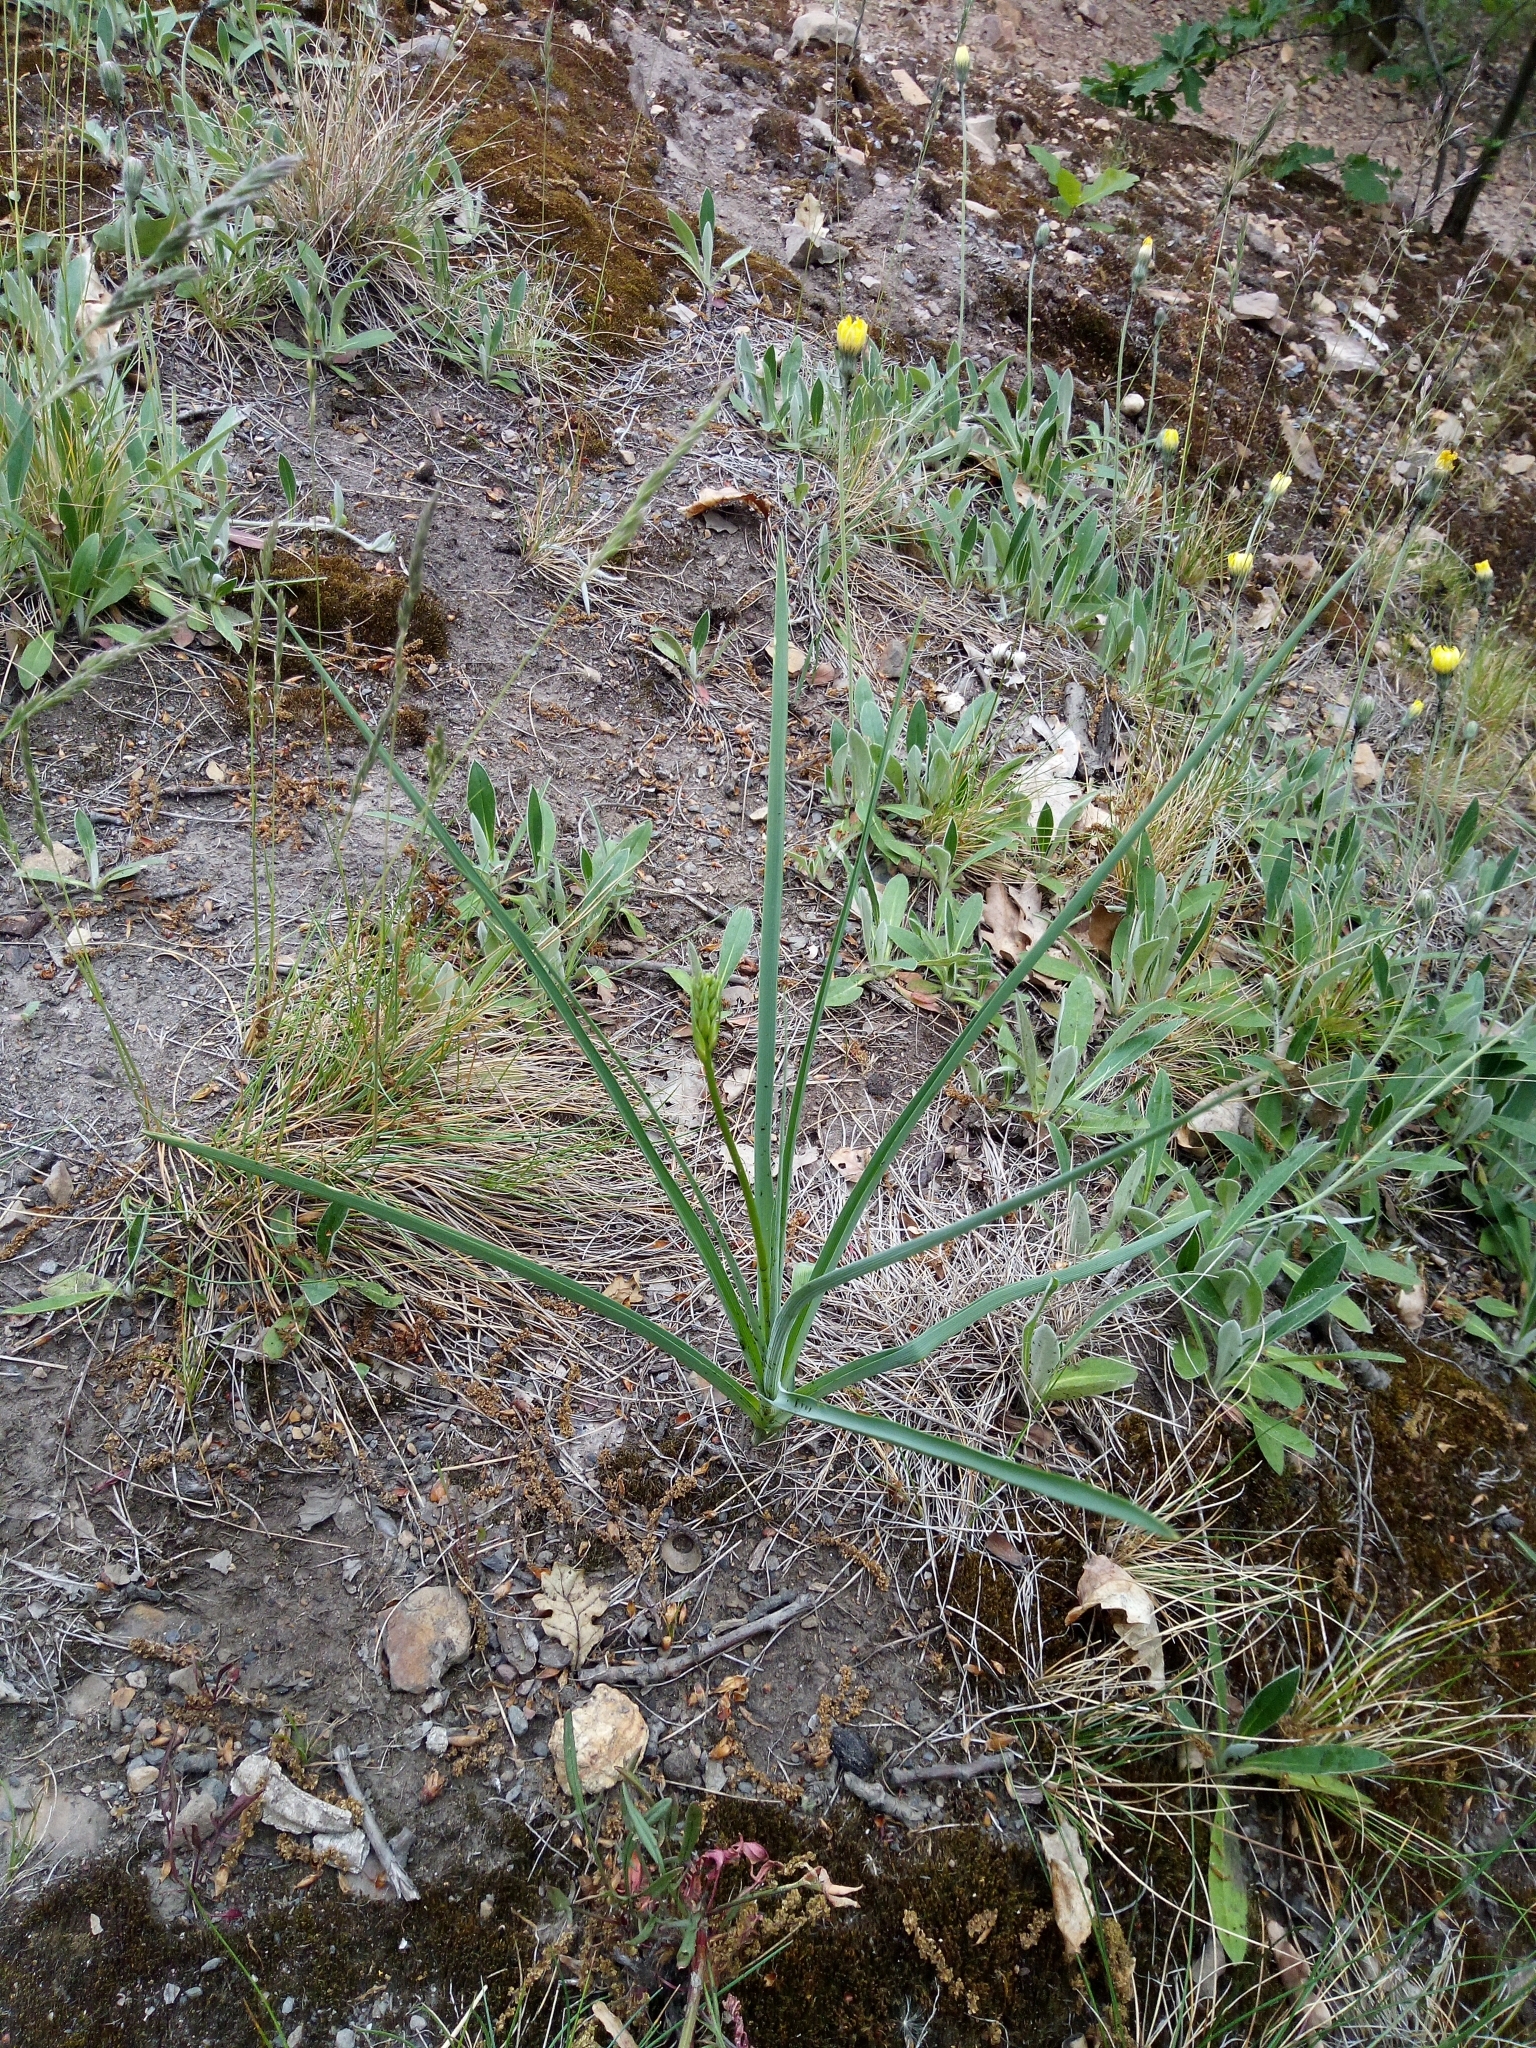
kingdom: Plantae
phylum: Tracheophyta
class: Liliopsida
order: Asparagales
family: Asparagaceae
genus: Anthericum
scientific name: Anthericum liliago
